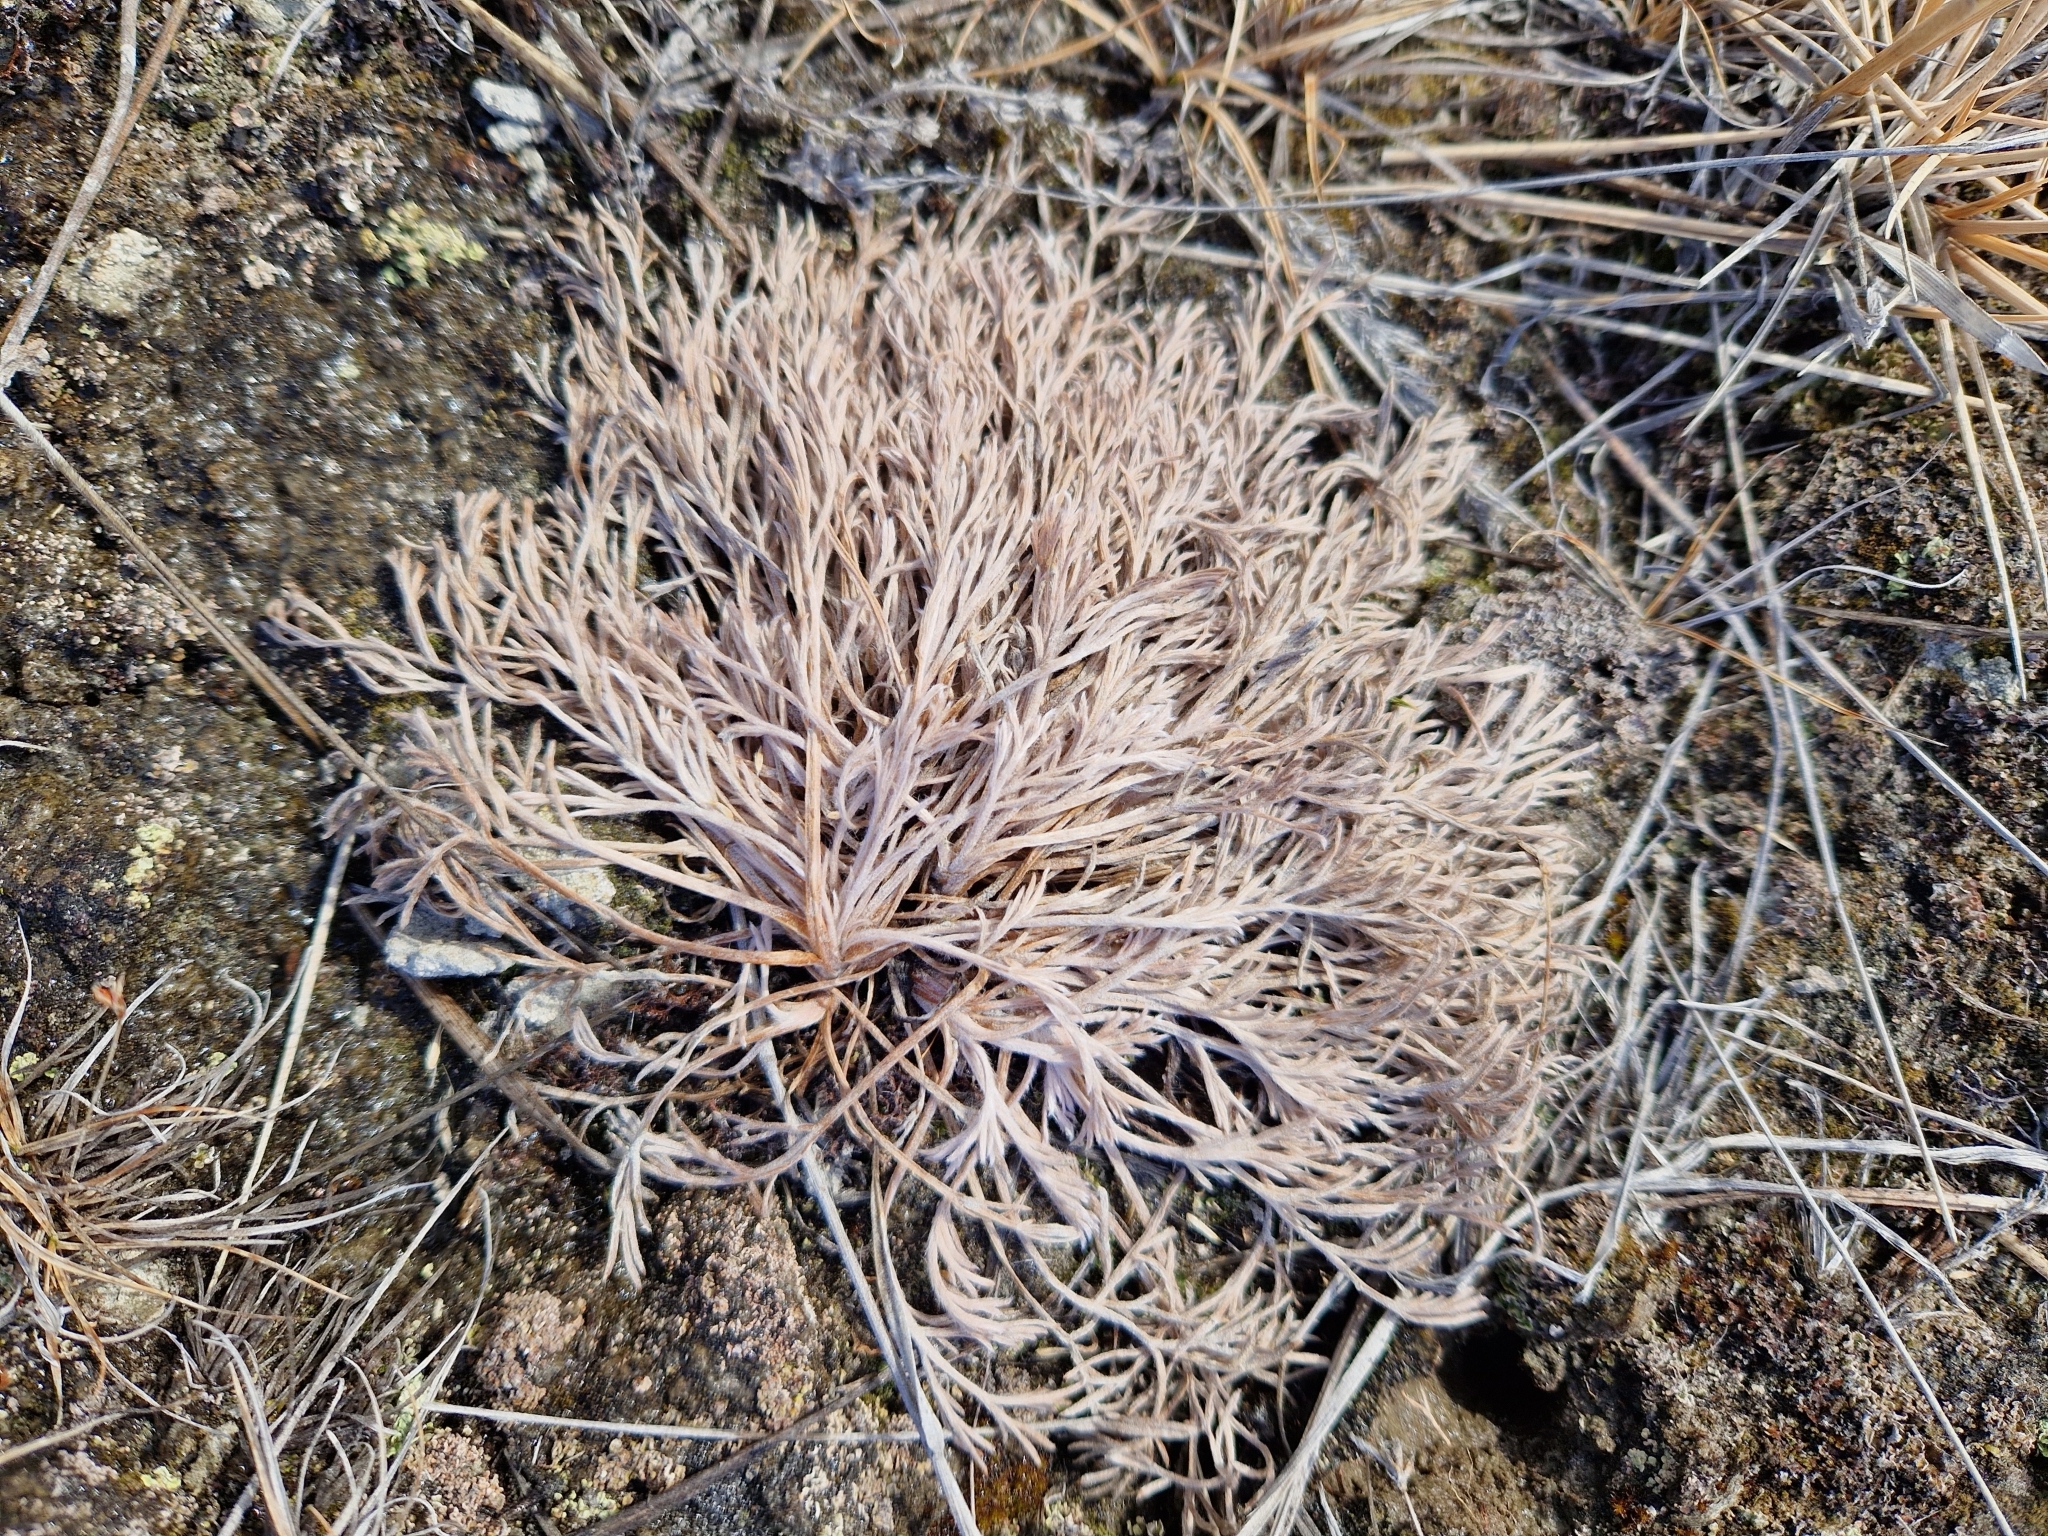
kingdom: Plantae
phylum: Tracheophyta
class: Magnoliopsida
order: Asterales
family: Asteraceae
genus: Artemisia
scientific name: Artemisia borealis
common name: Boreal sage
